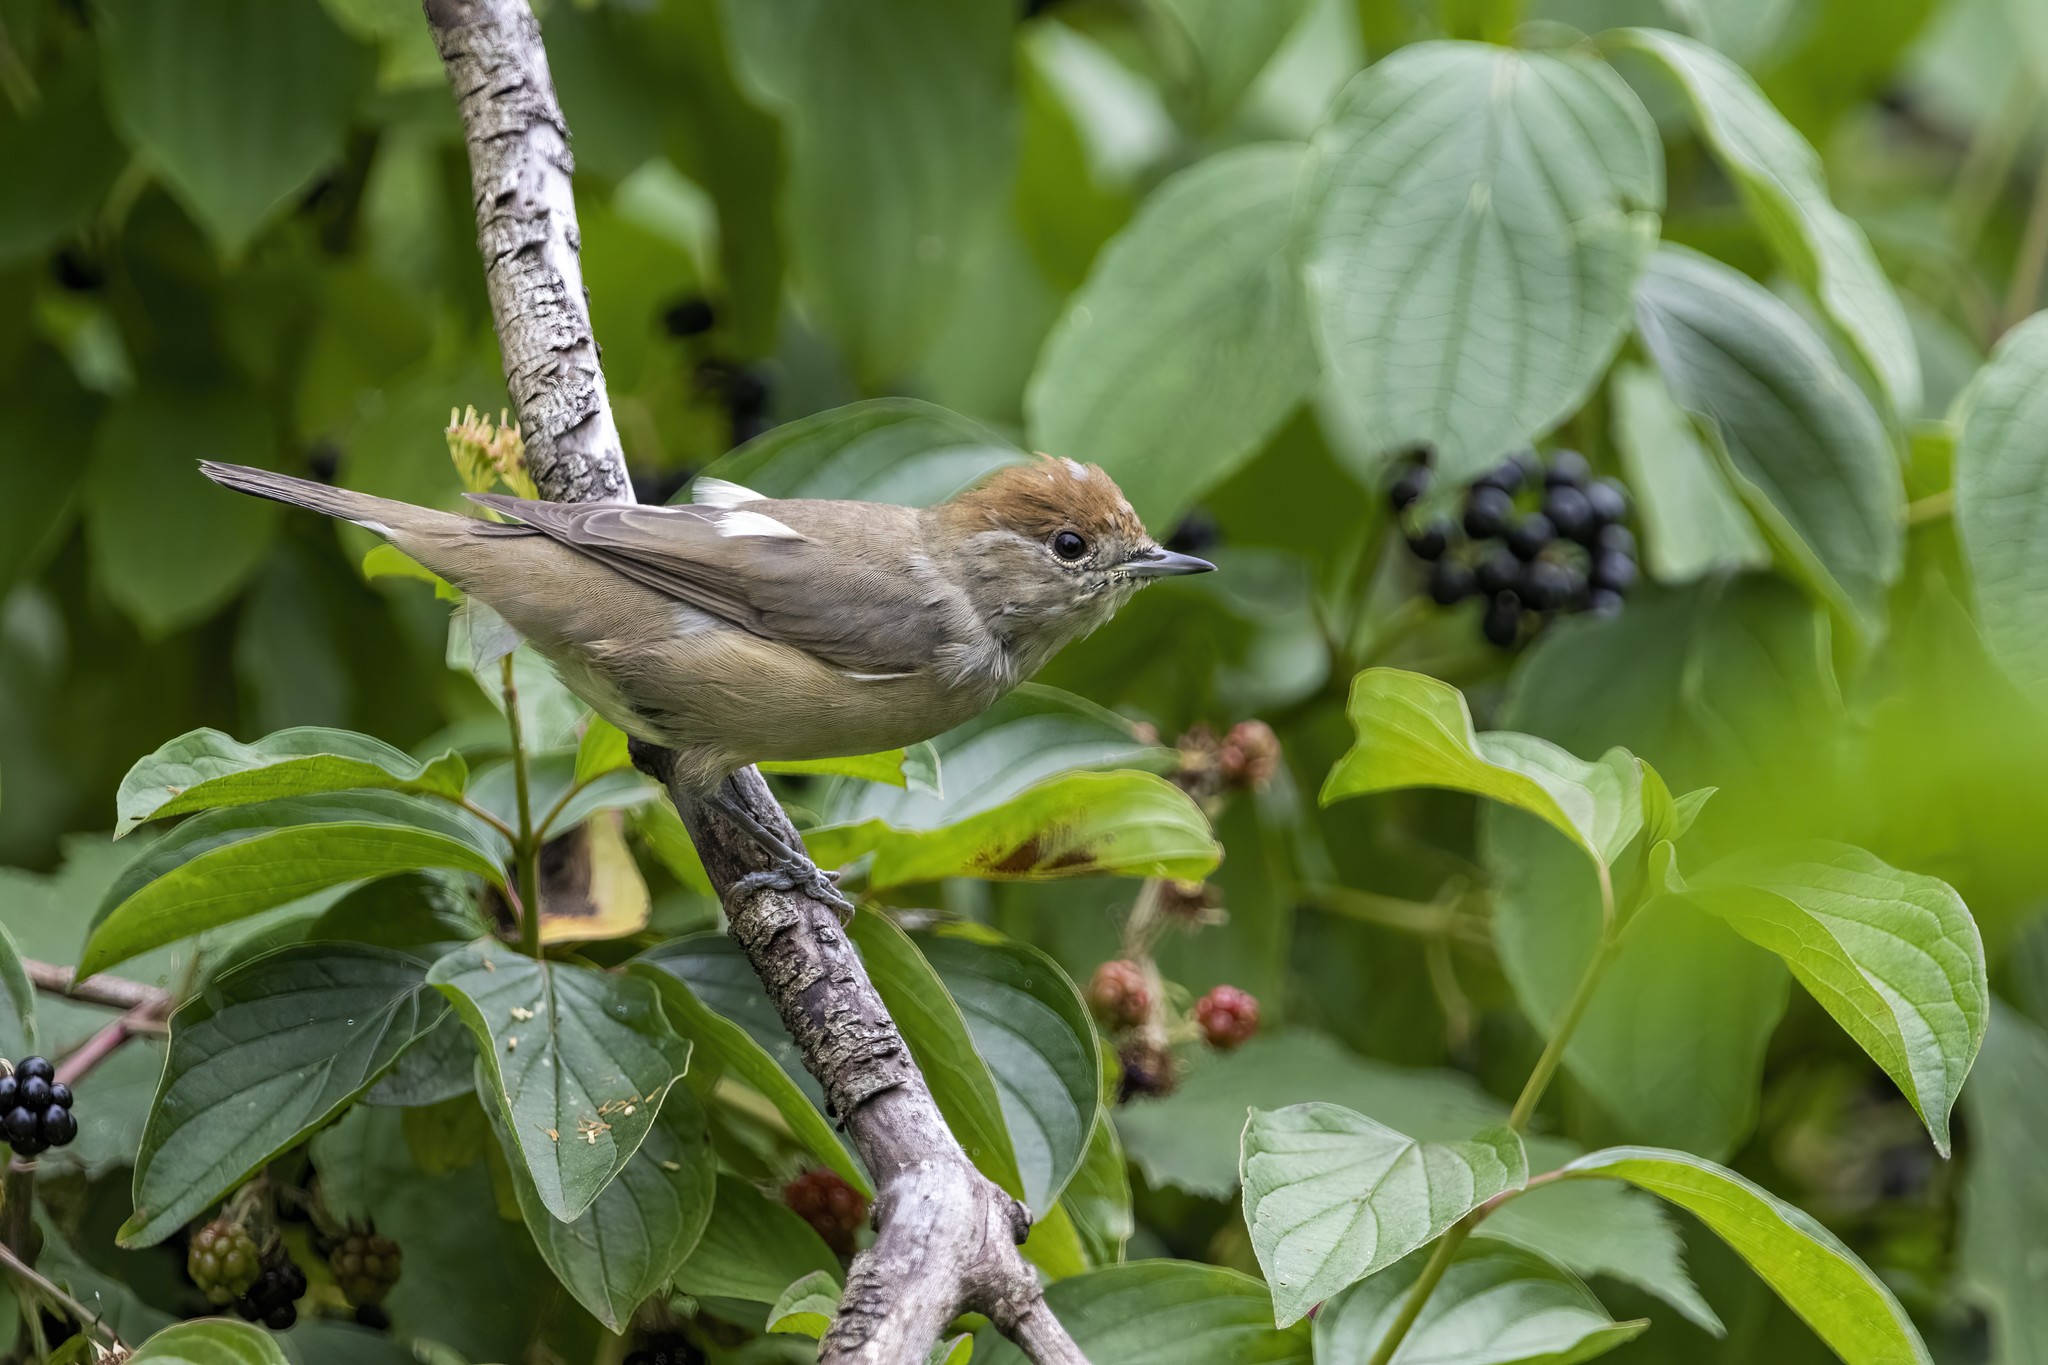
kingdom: Animalia
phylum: Chordata
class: Aves
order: Passeriformes
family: Sylviidae
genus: Sylvia
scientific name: Sylvia atricapilla
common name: Eurasian blackcap
